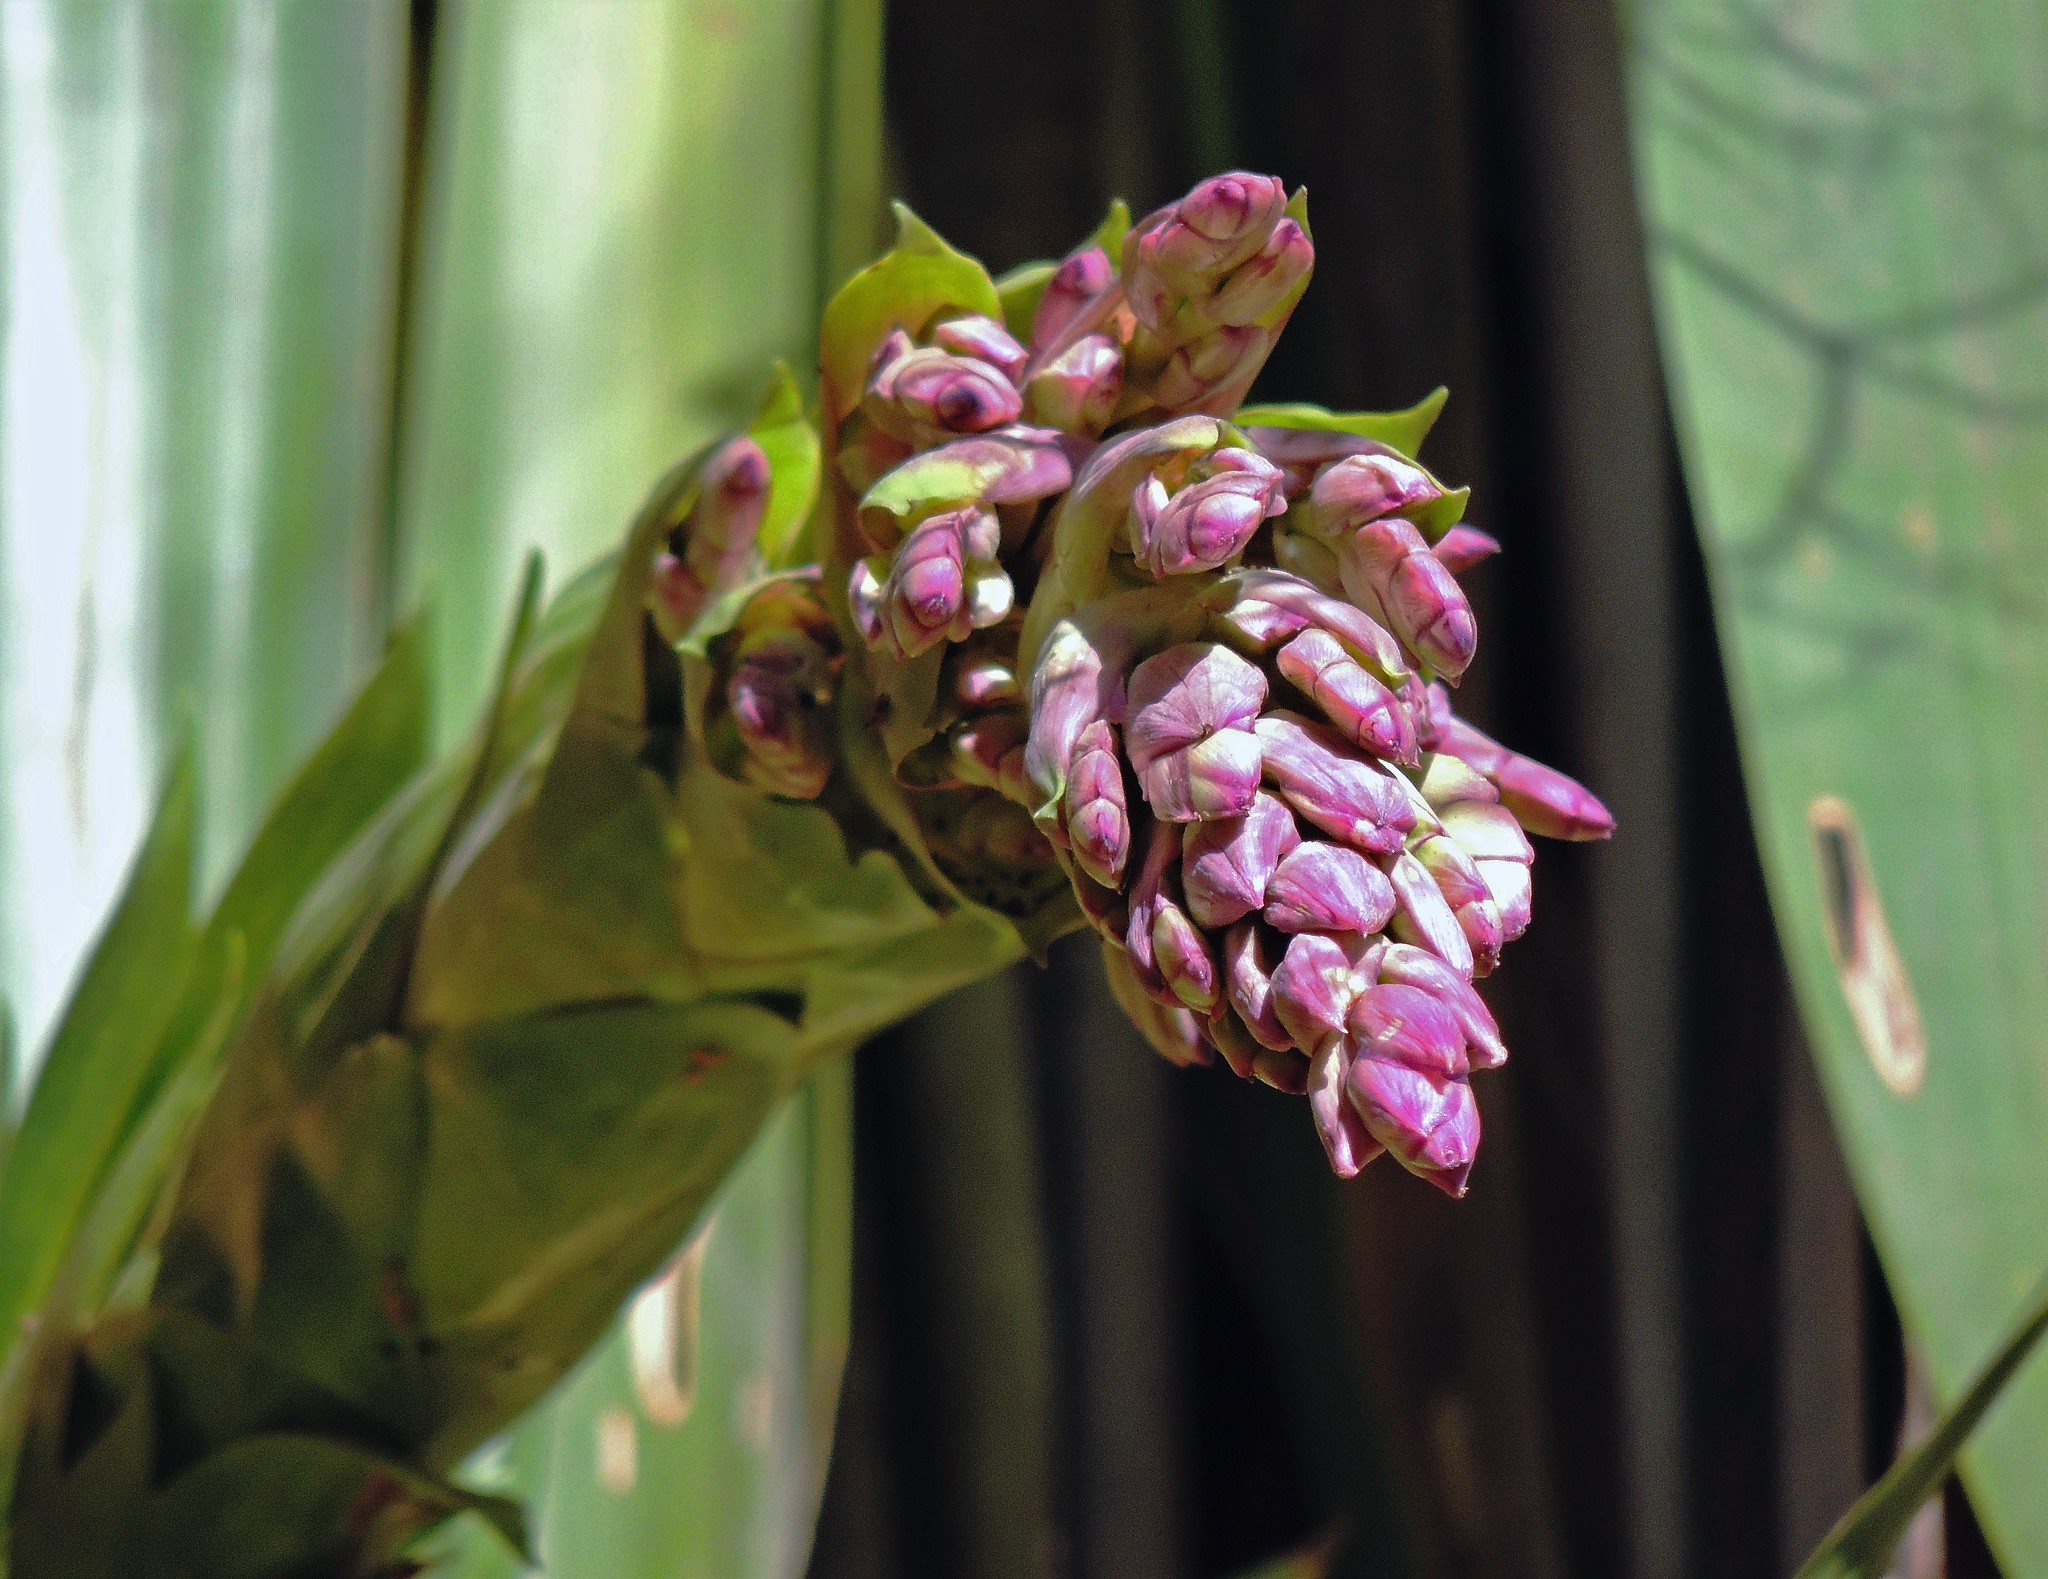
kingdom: Plantae
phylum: Tracheophyta
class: Liliopsida
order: Poales
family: Bromeliaceae
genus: Tillandsia
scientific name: Tillandsia australis
